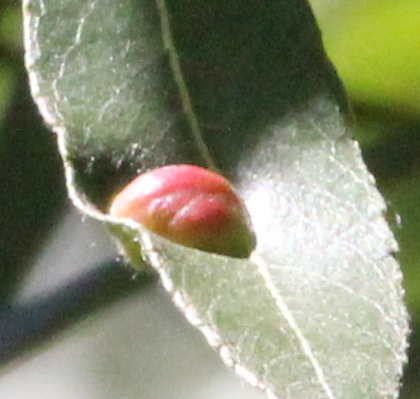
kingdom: Animalia
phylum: Arthropoda
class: Insecta
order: Hymenoptera
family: Tenthredinidae
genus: Euura
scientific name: Euura
